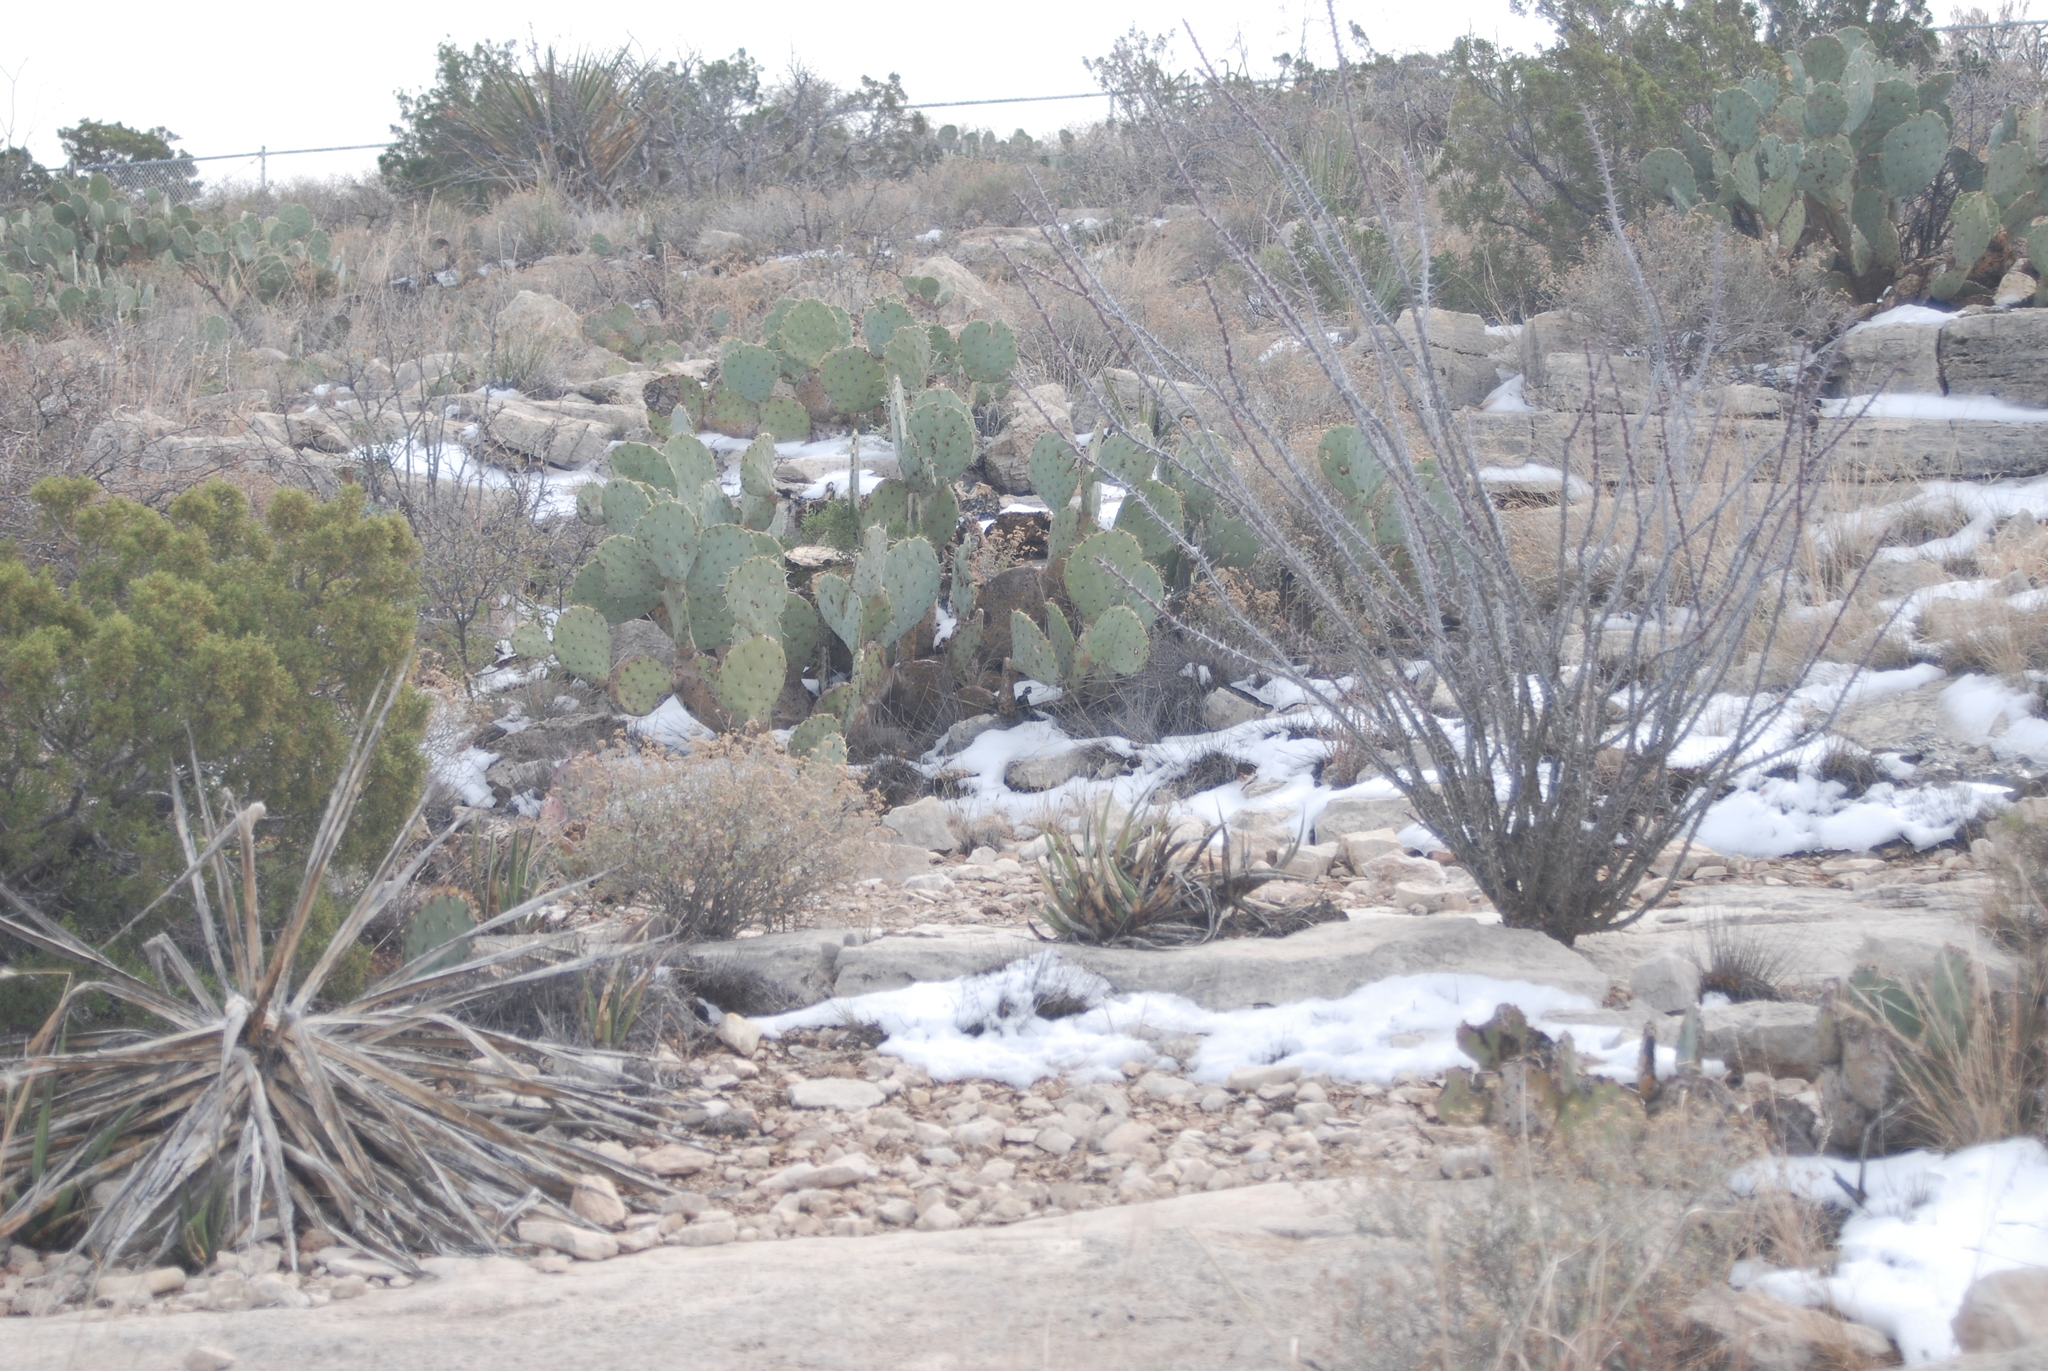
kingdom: Plantae
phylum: Tracheophyta
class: Magnoliopsida
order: Ericales
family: Fouquieriaceae
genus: Fouquieria
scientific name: Fouquieria splendens
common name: Vine-cactus
